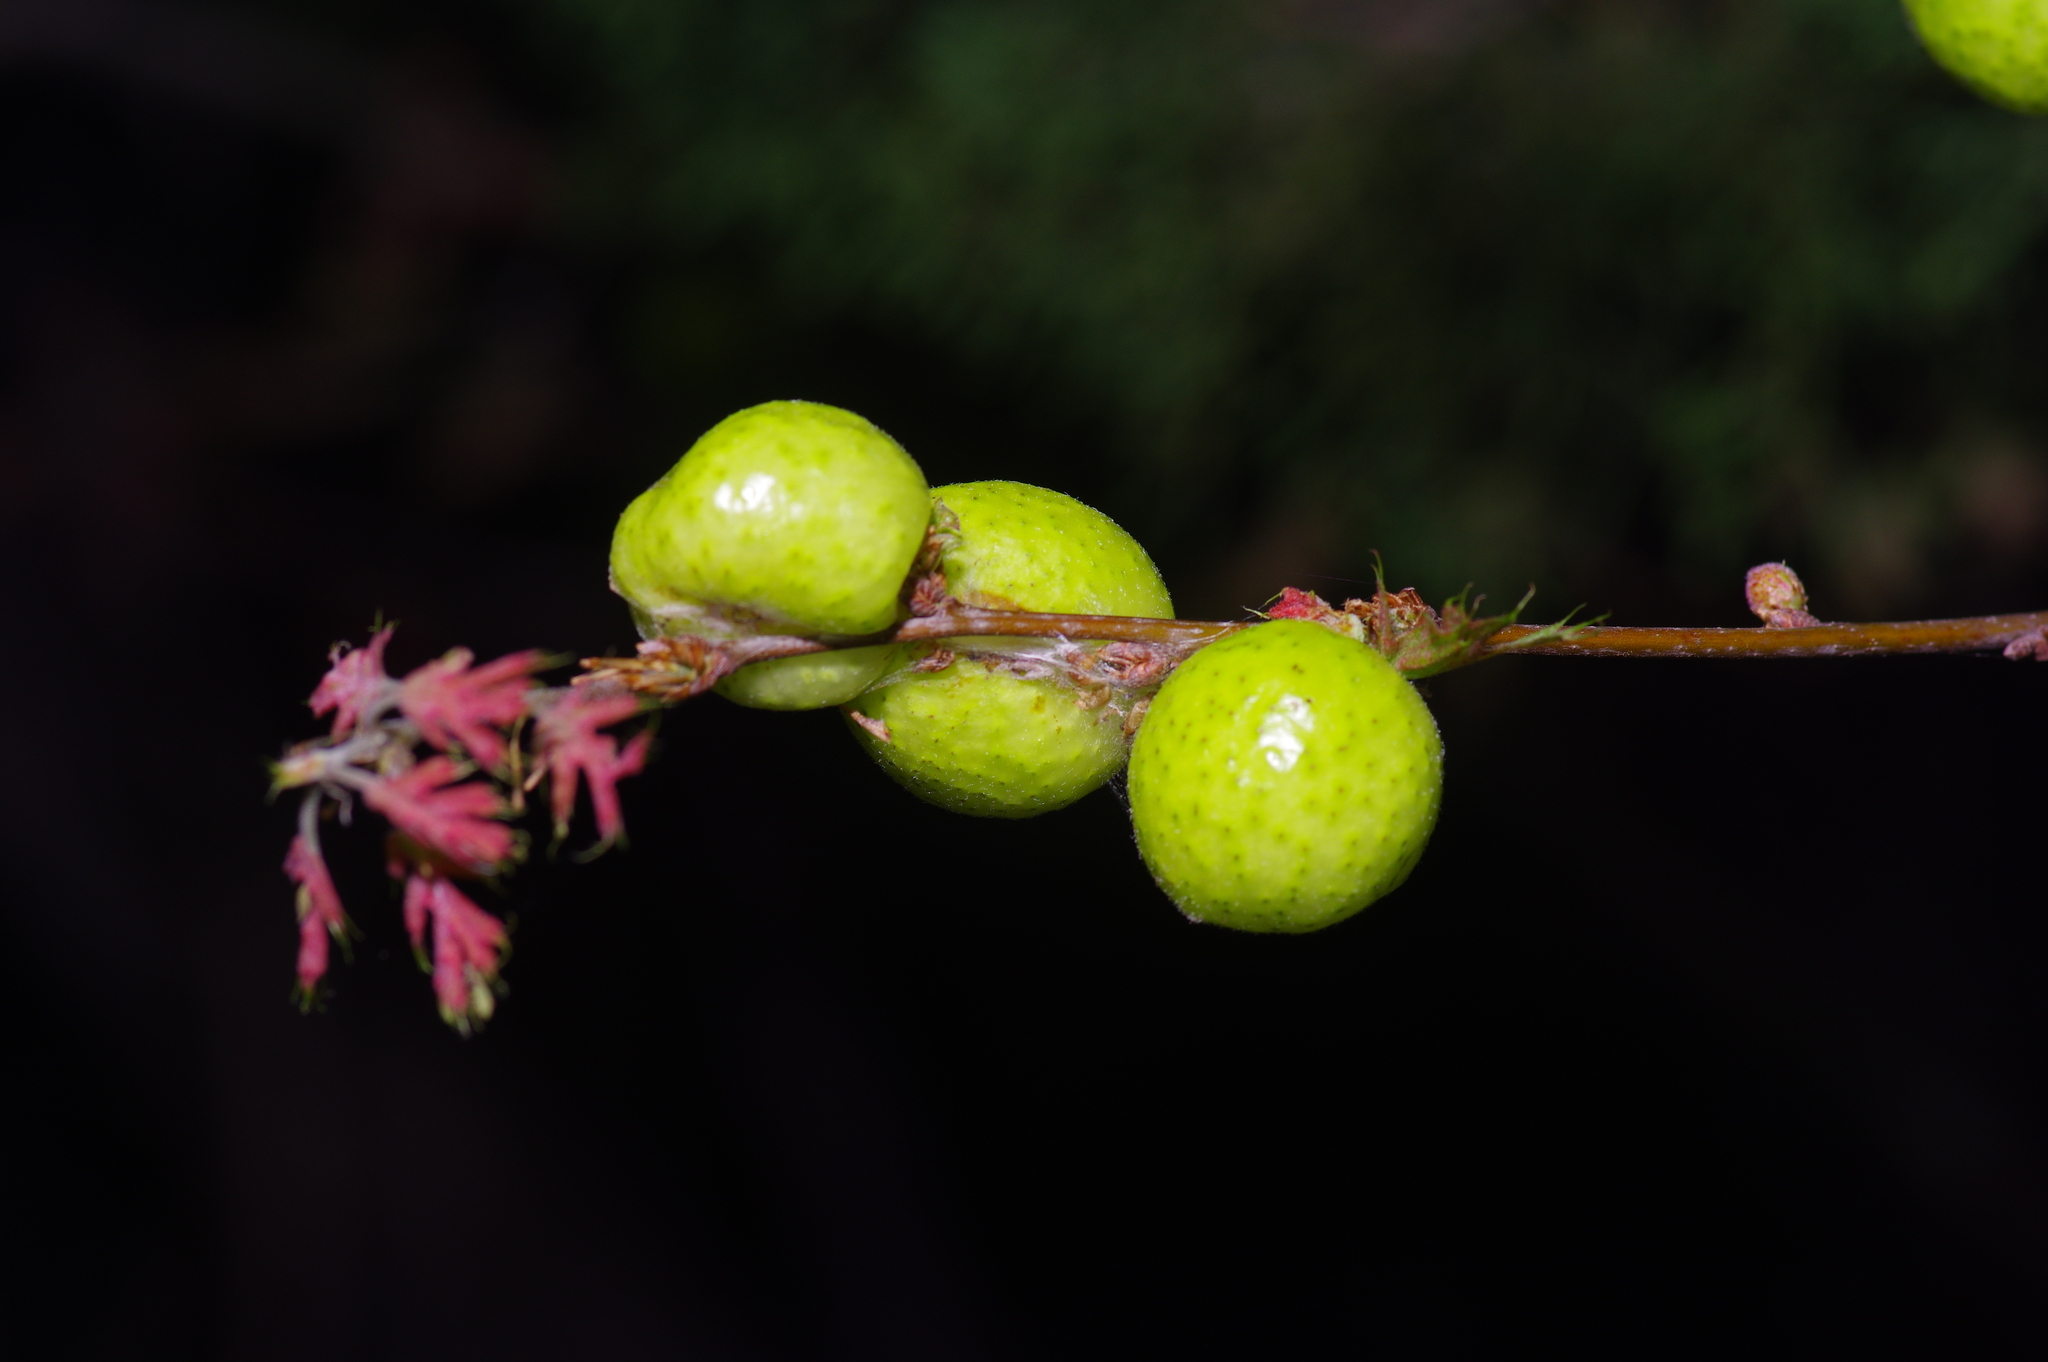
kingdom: Animalia
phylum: Arthropoda
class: Insecta
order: Hymenoptera
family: Cynipidae
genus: Amphibolips
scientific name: Amphibolips
